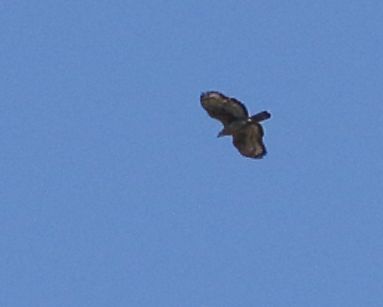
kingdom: Animalia
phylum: Chordata
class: Aves
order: Accipitriformes
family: Accipitridae
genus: Stephanoaetus
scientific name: Stephanoaetus coronatus
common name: Crowned eagle
